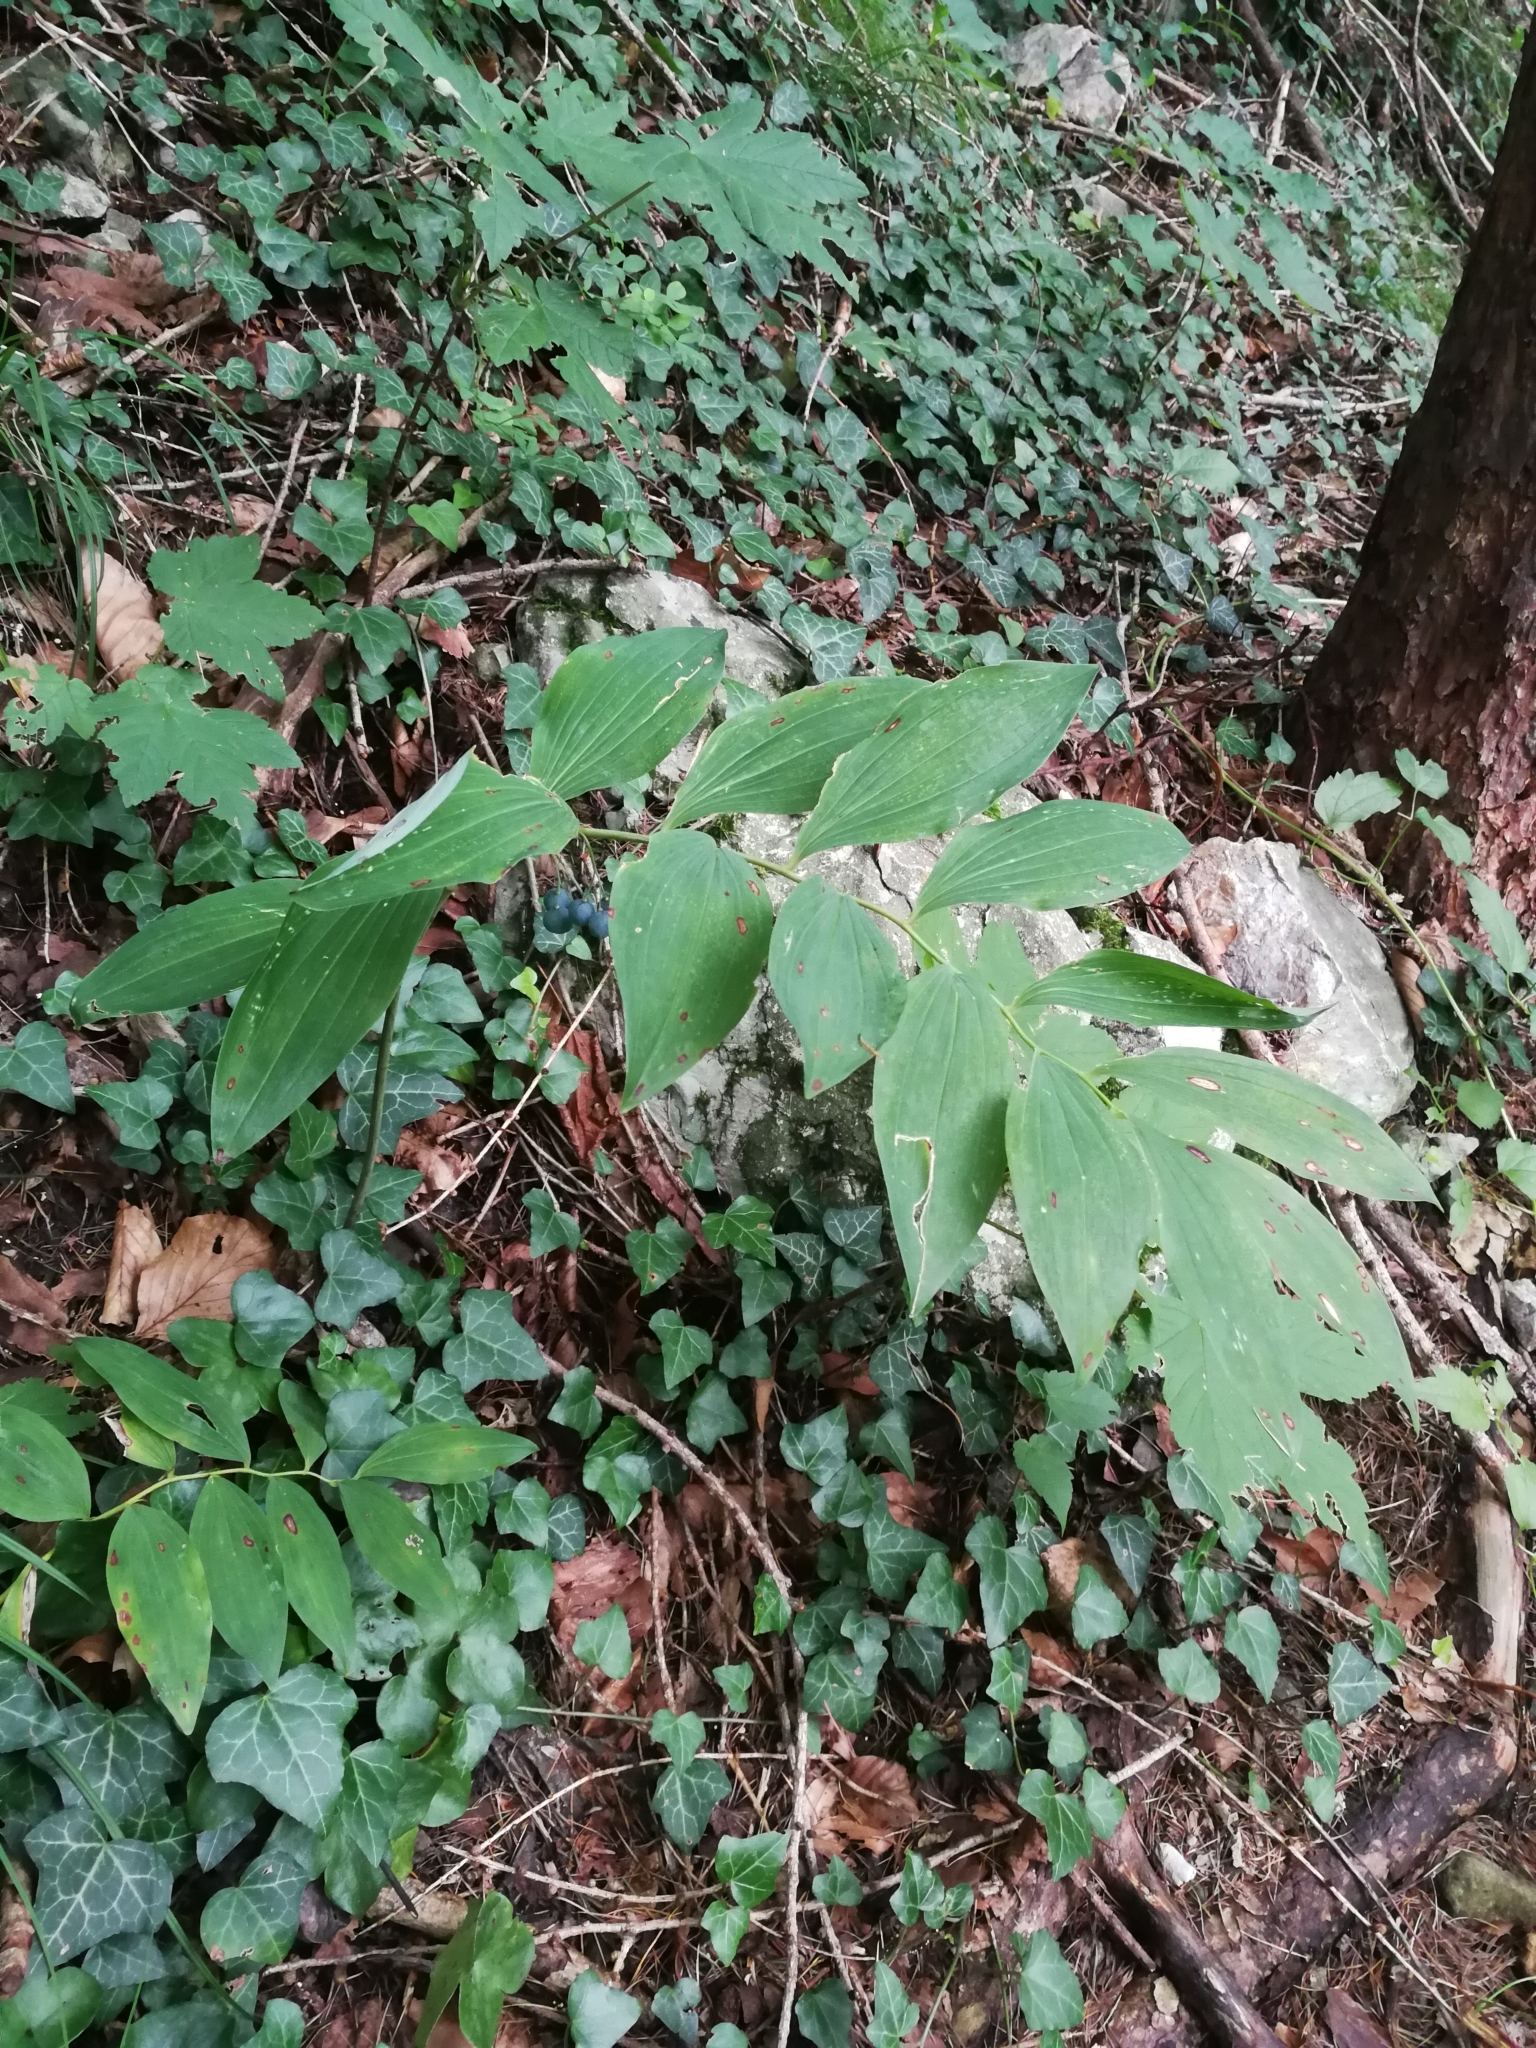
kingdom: Plantae
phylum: Tracheophyta
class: Liliopsida
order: Asparagales
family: Asparagaceae
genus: Polygonatum
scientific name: Polygonatum multiflorum
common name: Solomon's-seal
